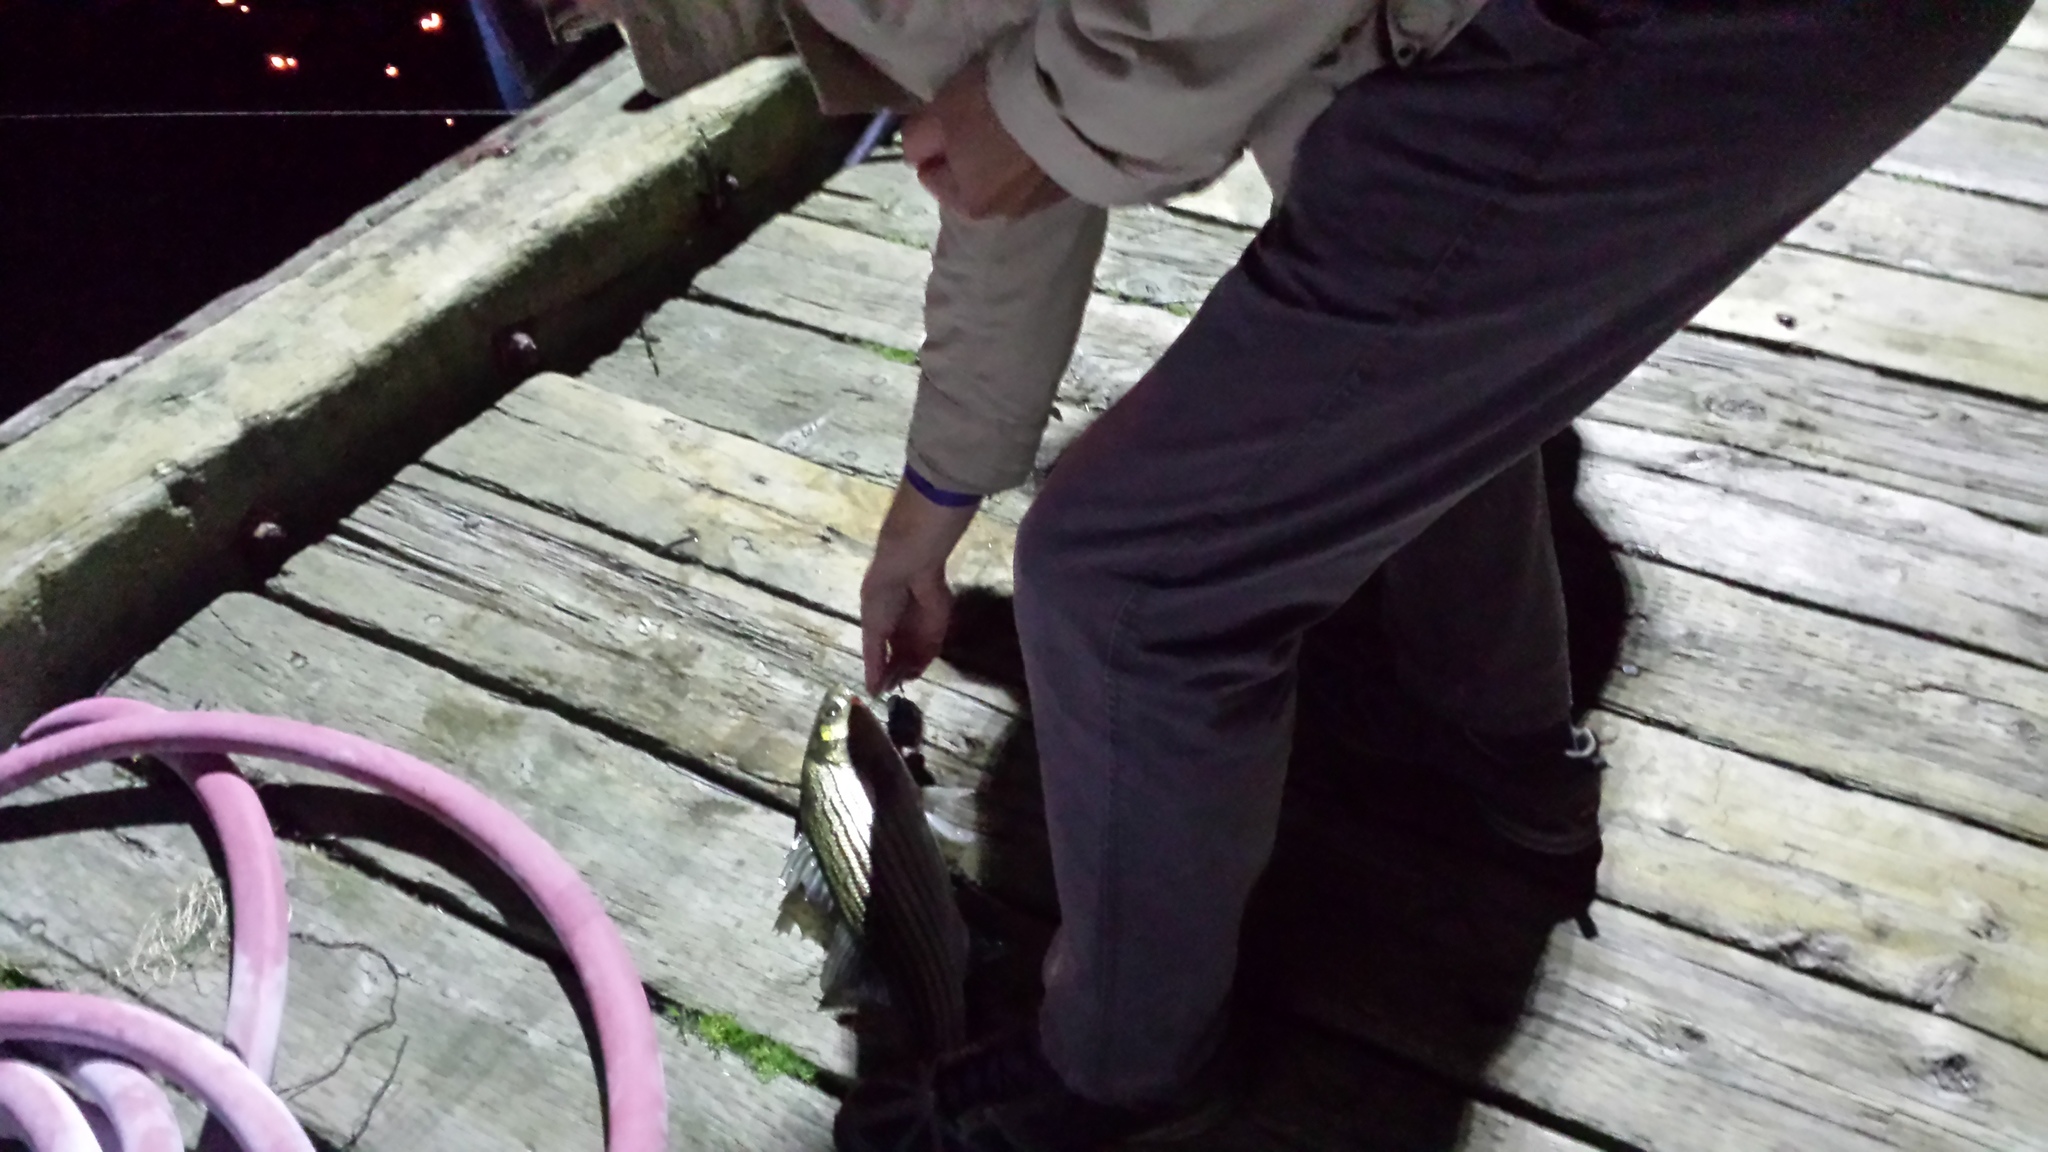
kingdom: Animalia
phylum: Chordata
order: Perciformes
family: Moronidae
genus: Morone
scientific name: Morone saxatilis
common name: Striped bass
